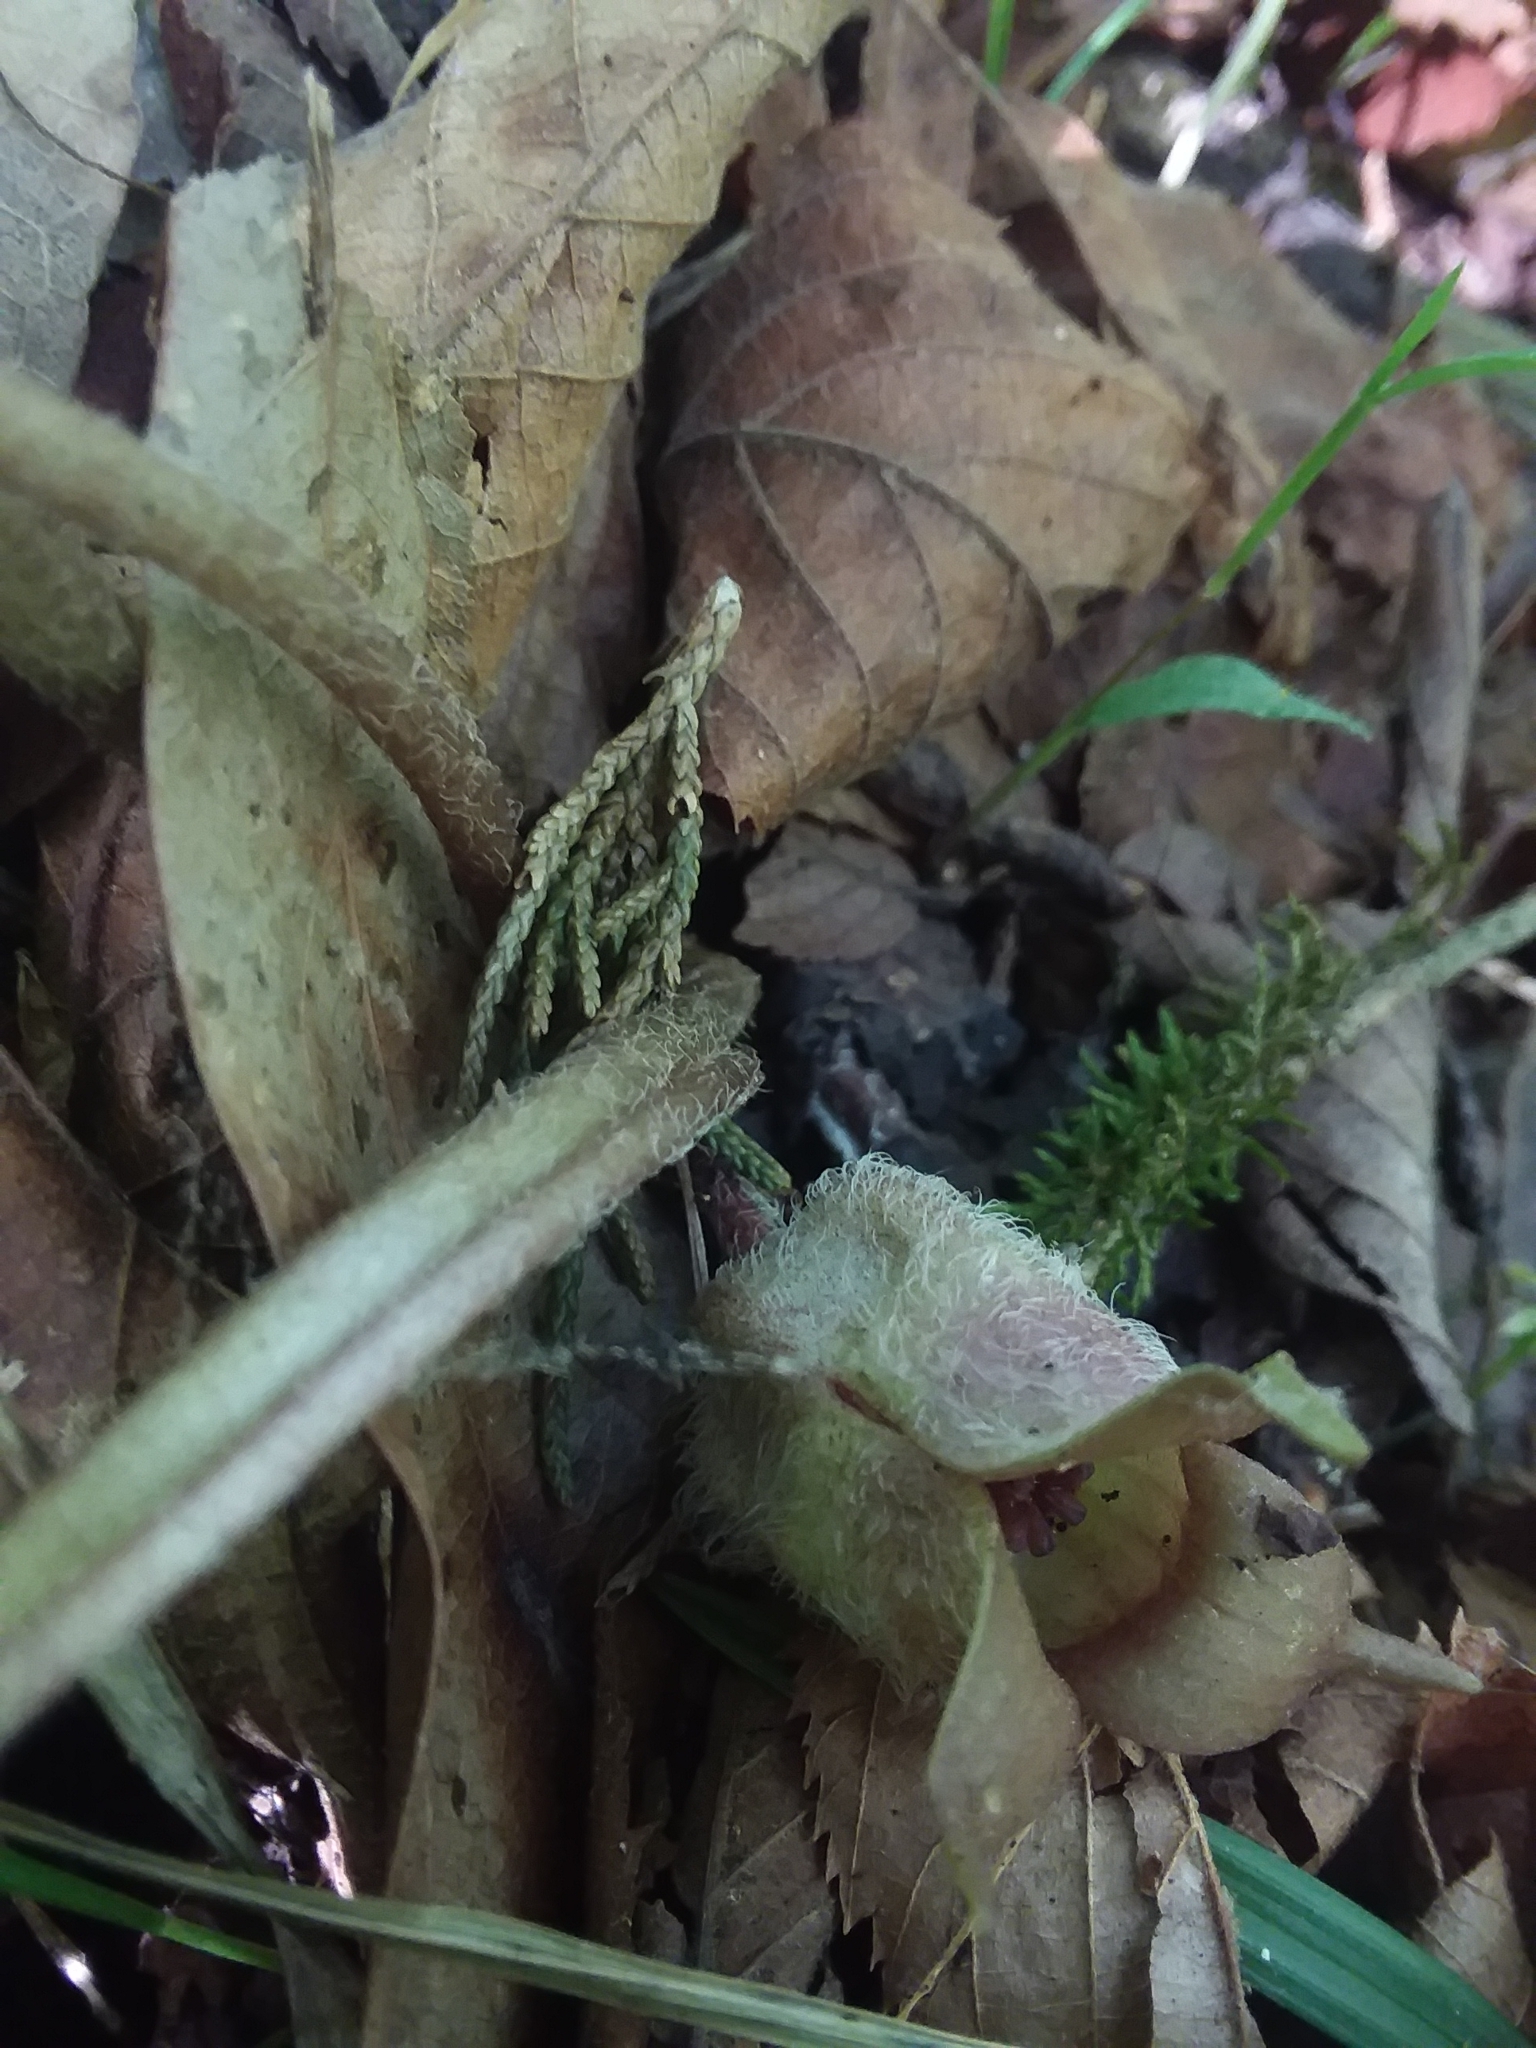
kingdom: Plantae
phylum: Tracheophyta
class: Magnoliopsida
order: Piperales
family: Aristolochiaceae
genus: Asarum
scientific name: Asarum canadense
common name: Wild ginger
